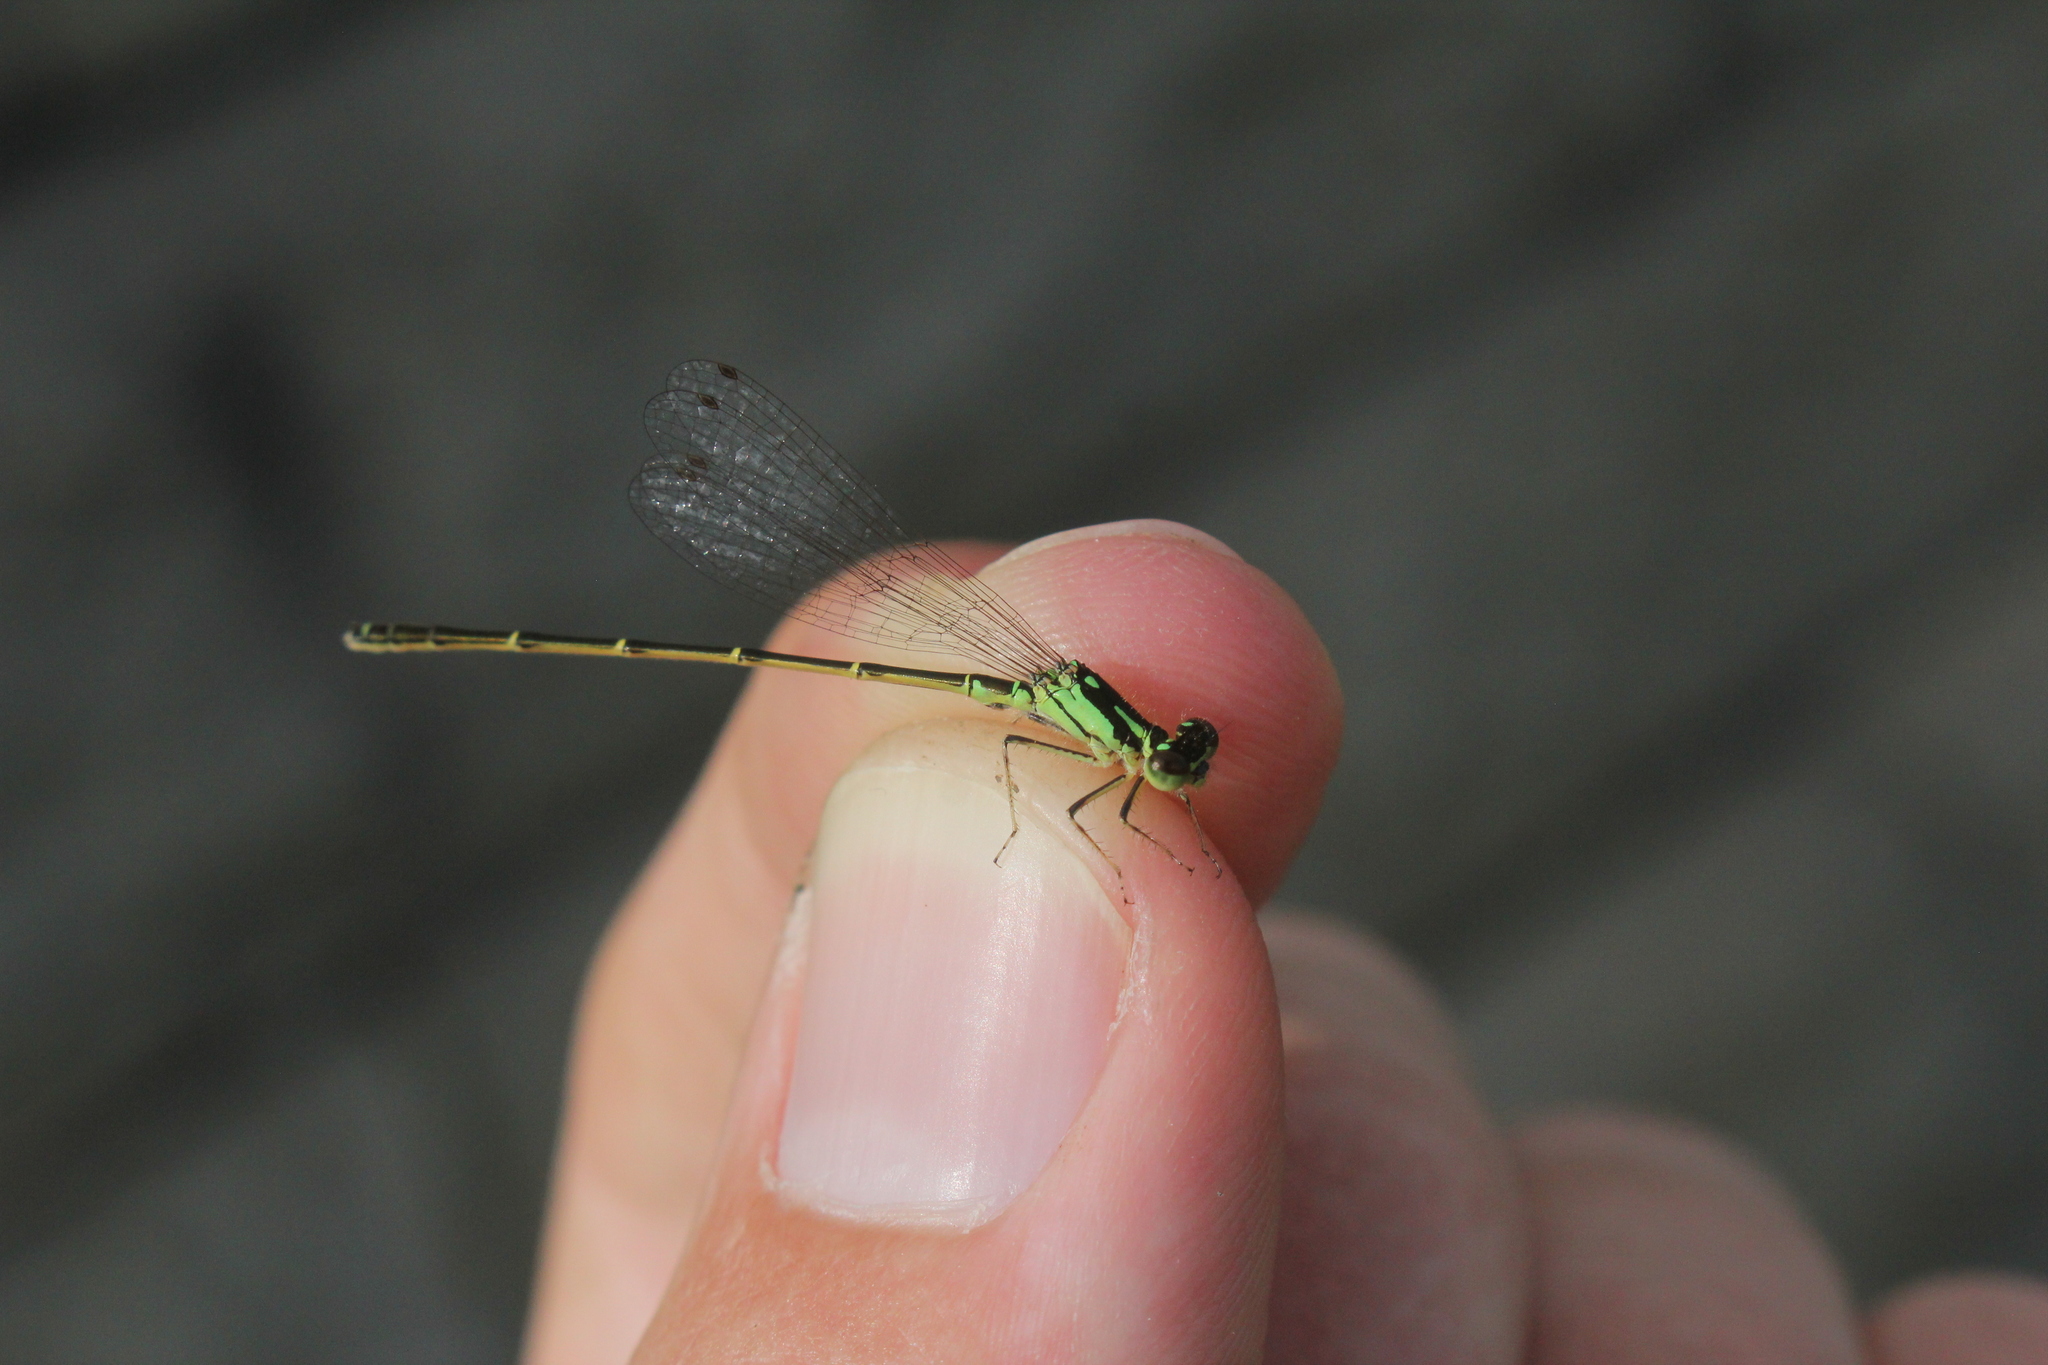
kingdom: Animalia
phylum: Arthropoda
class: Insecta
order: Odonata
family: Coenagrionidae
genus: Ischnura
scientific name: Ischnura posita
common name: Fragile forktail
